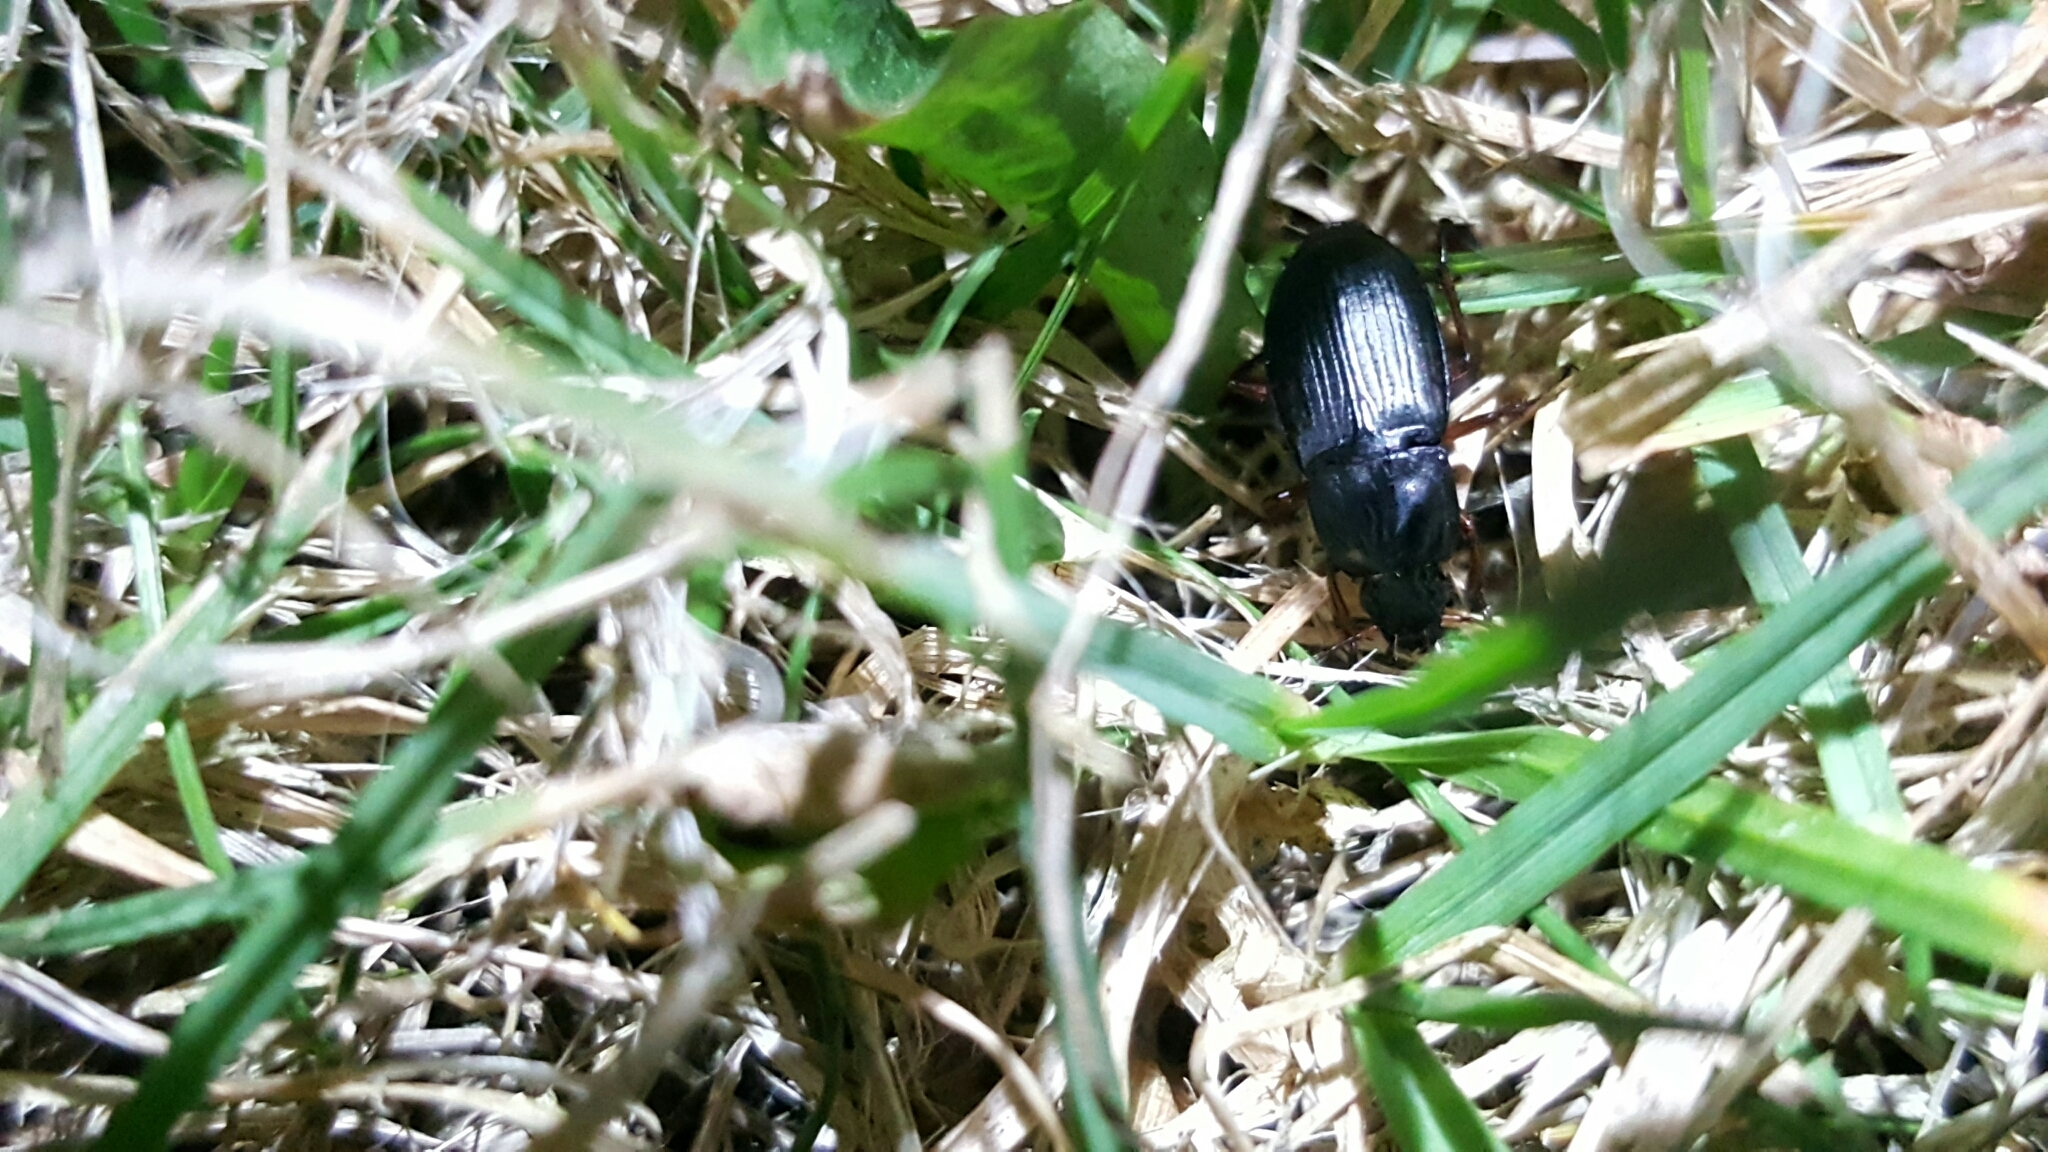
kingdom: Animalia
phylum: Arthropoda
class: Insecta
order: Coleoptera
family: Carabidae
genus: Calathus
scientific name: Calathus fuscipes
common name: Dark-footed harp ground beetle
